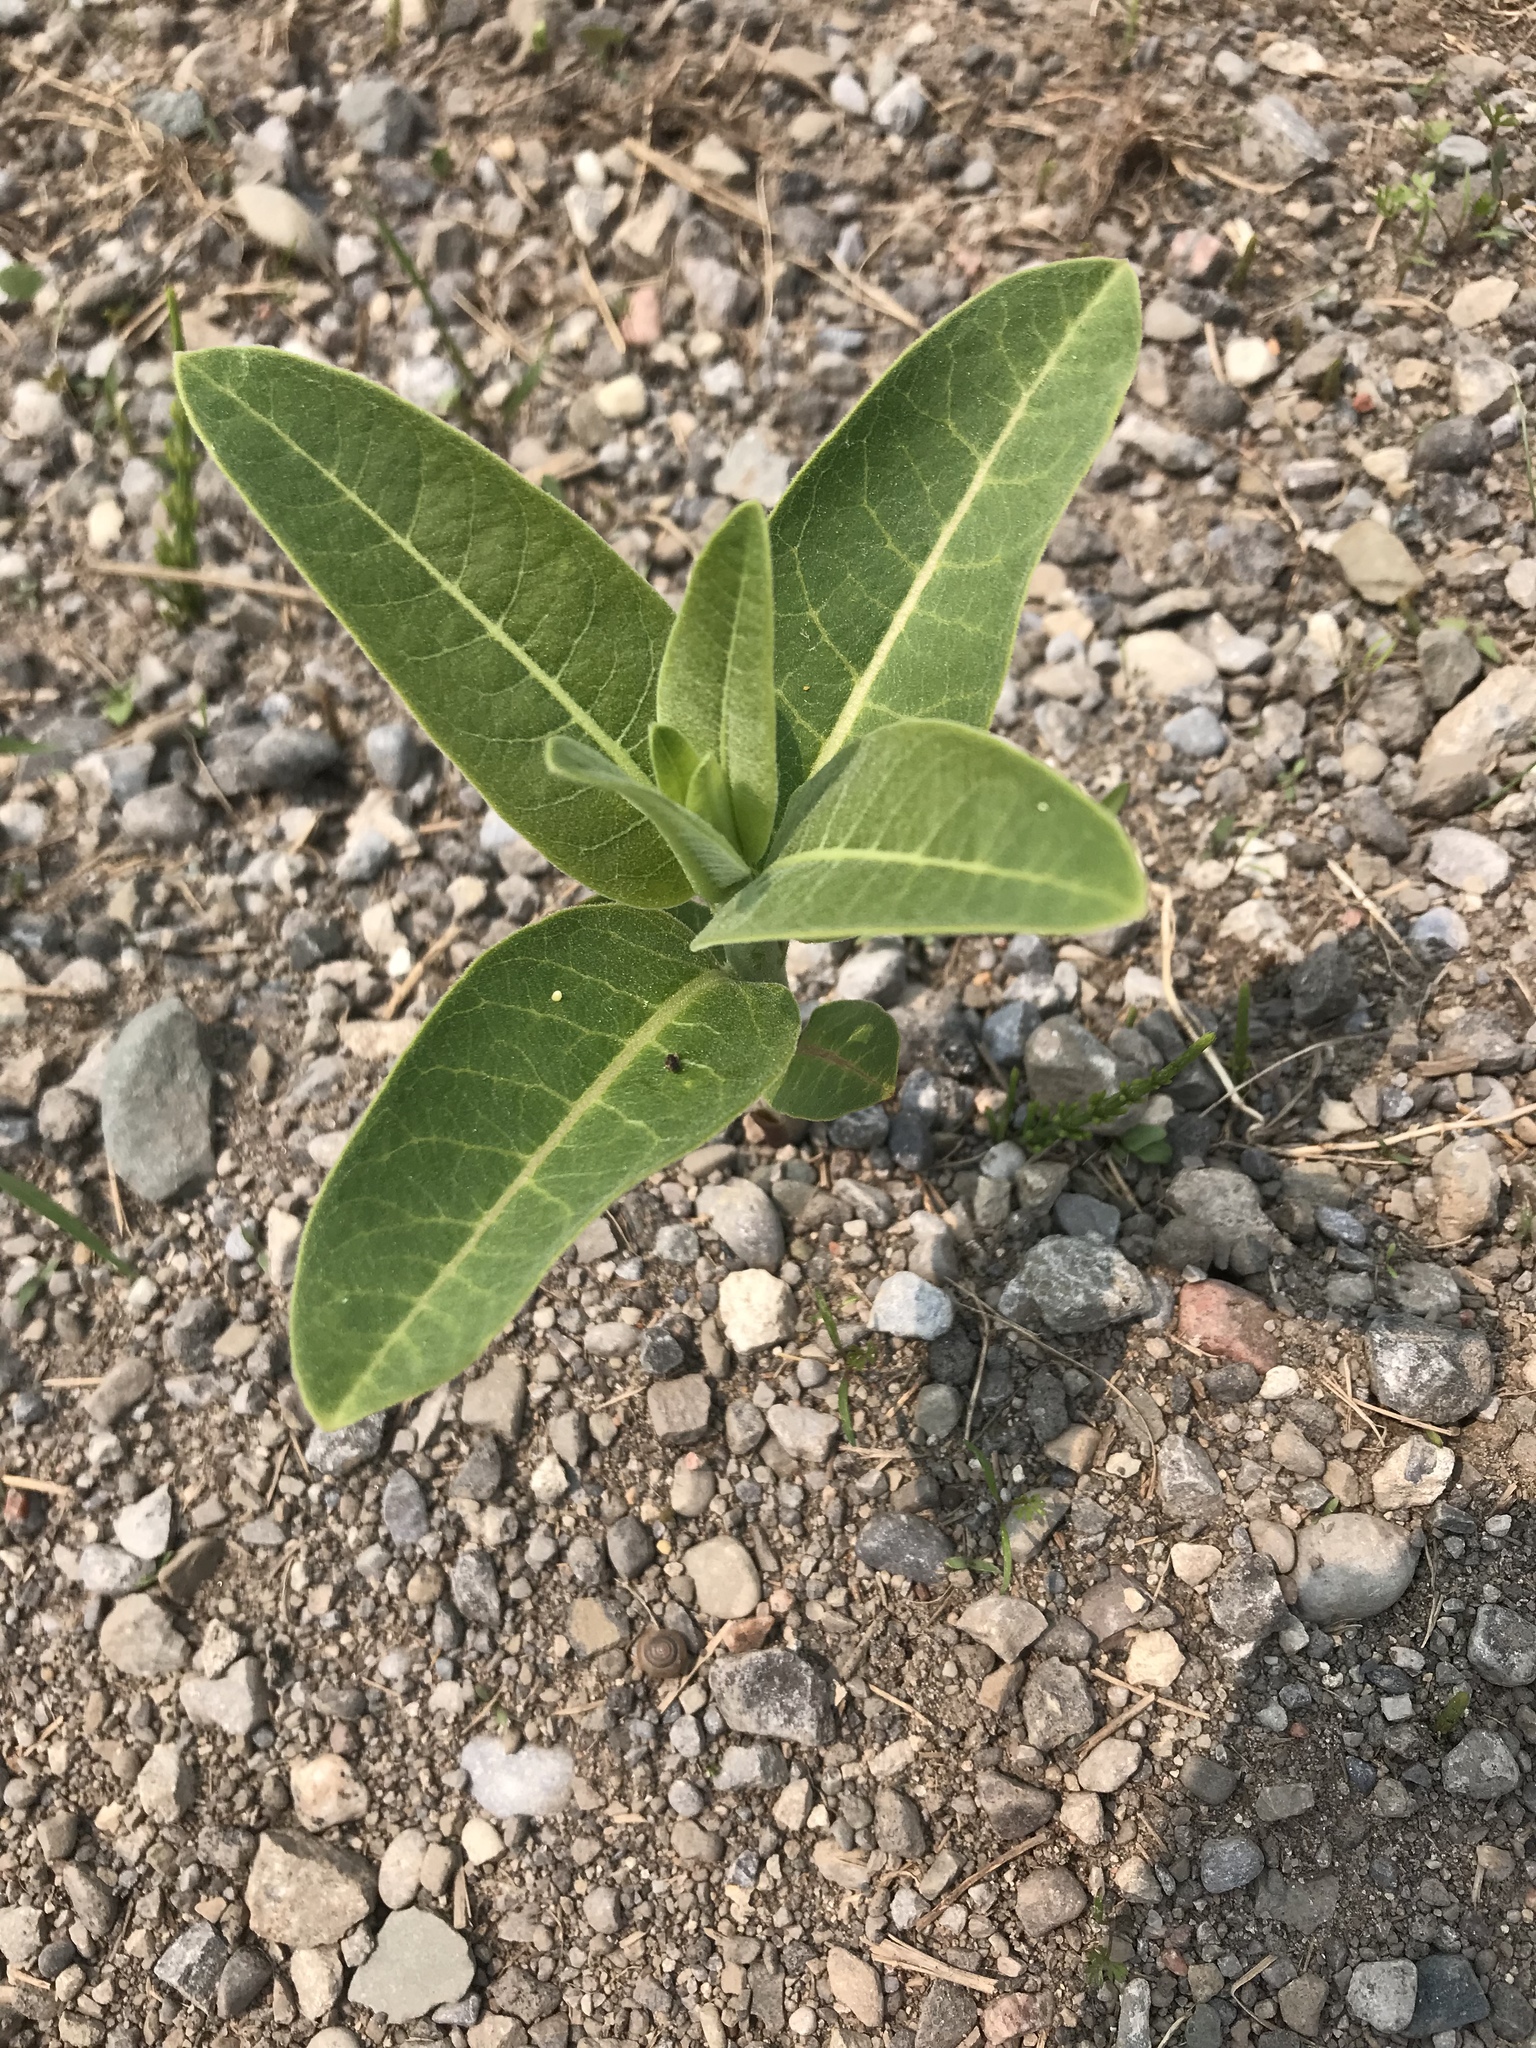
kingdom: Plantae
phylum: Tracheophyta
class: Magnoliopsida
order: Gentianales
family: Apocynaceae
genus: Asclepias
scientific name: Asclepias syriaca
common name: Common milkweed
